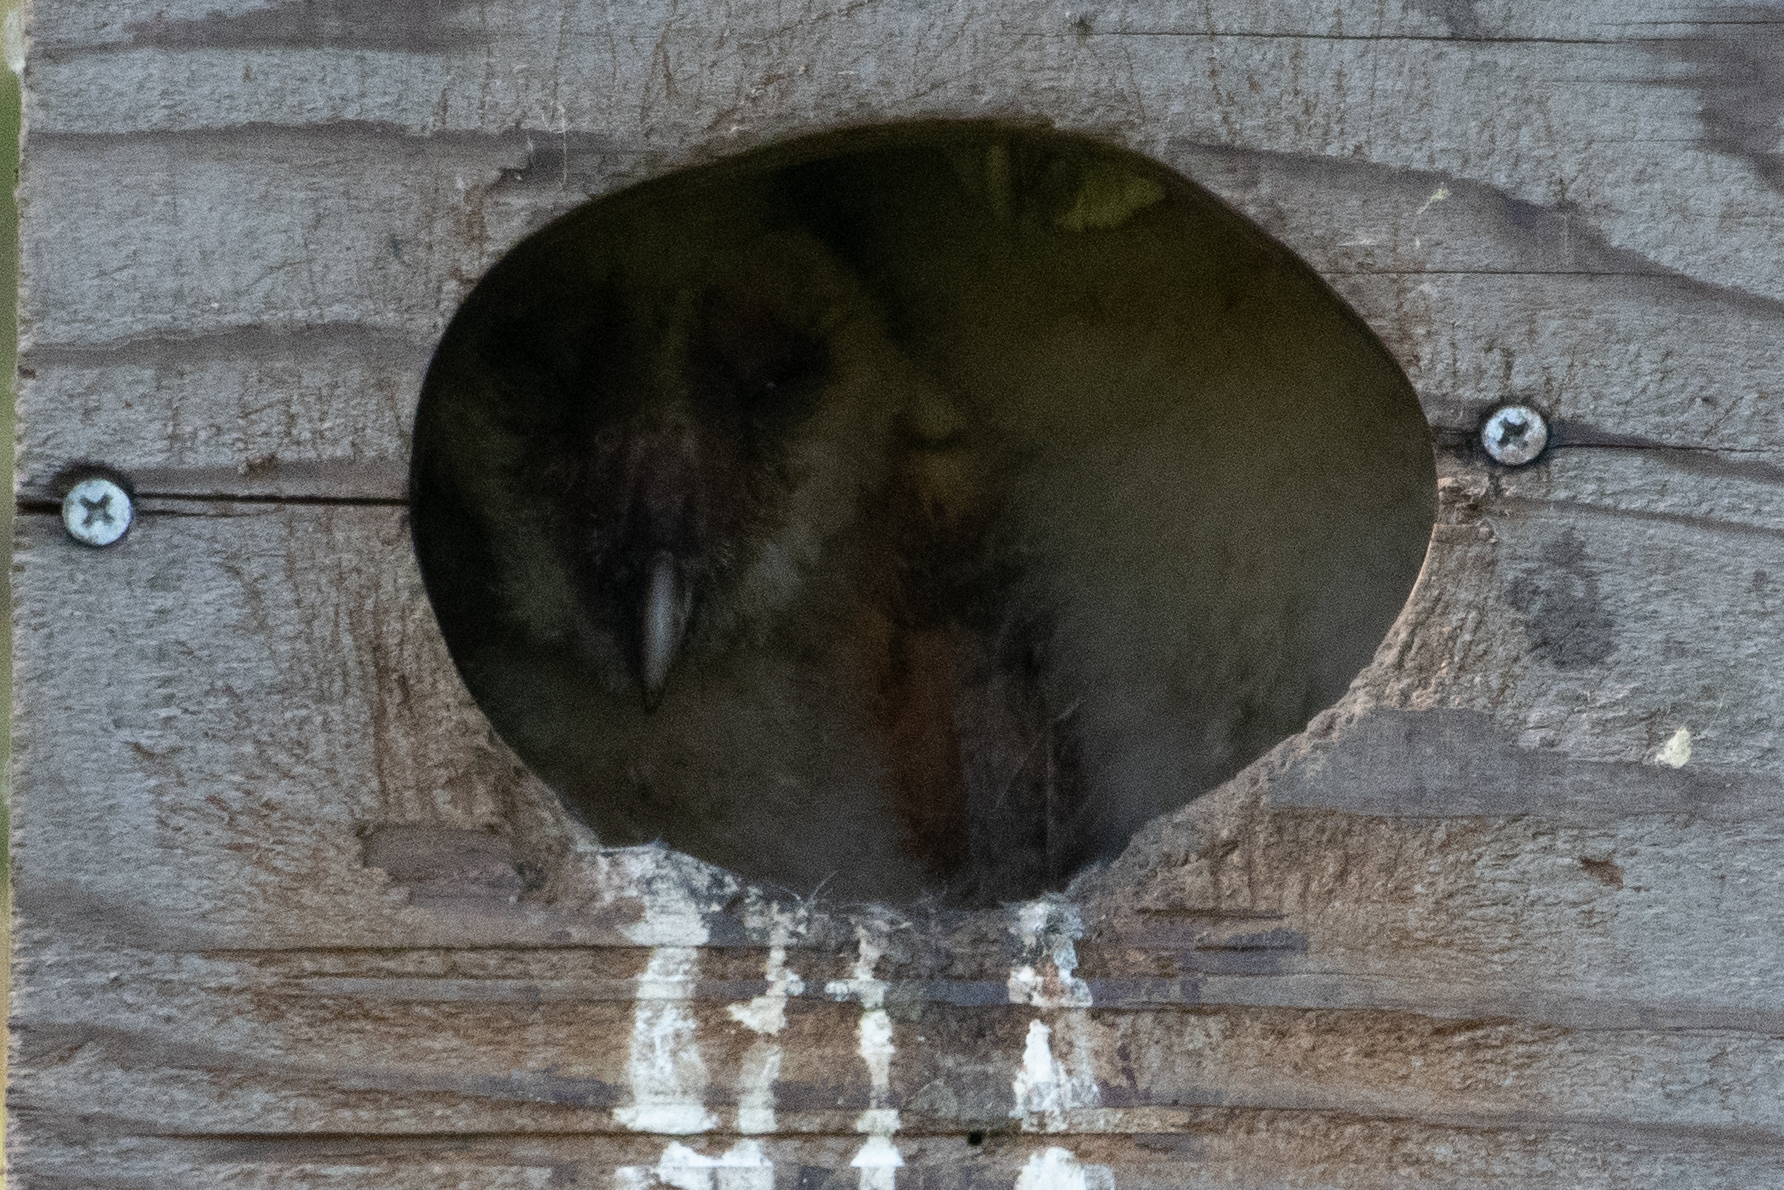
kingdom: Animalia
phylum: Chordata
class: Aves
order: Strigiformes
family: Tytonidae
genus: Tyto
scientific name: Tyto alba
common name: Barn owl
